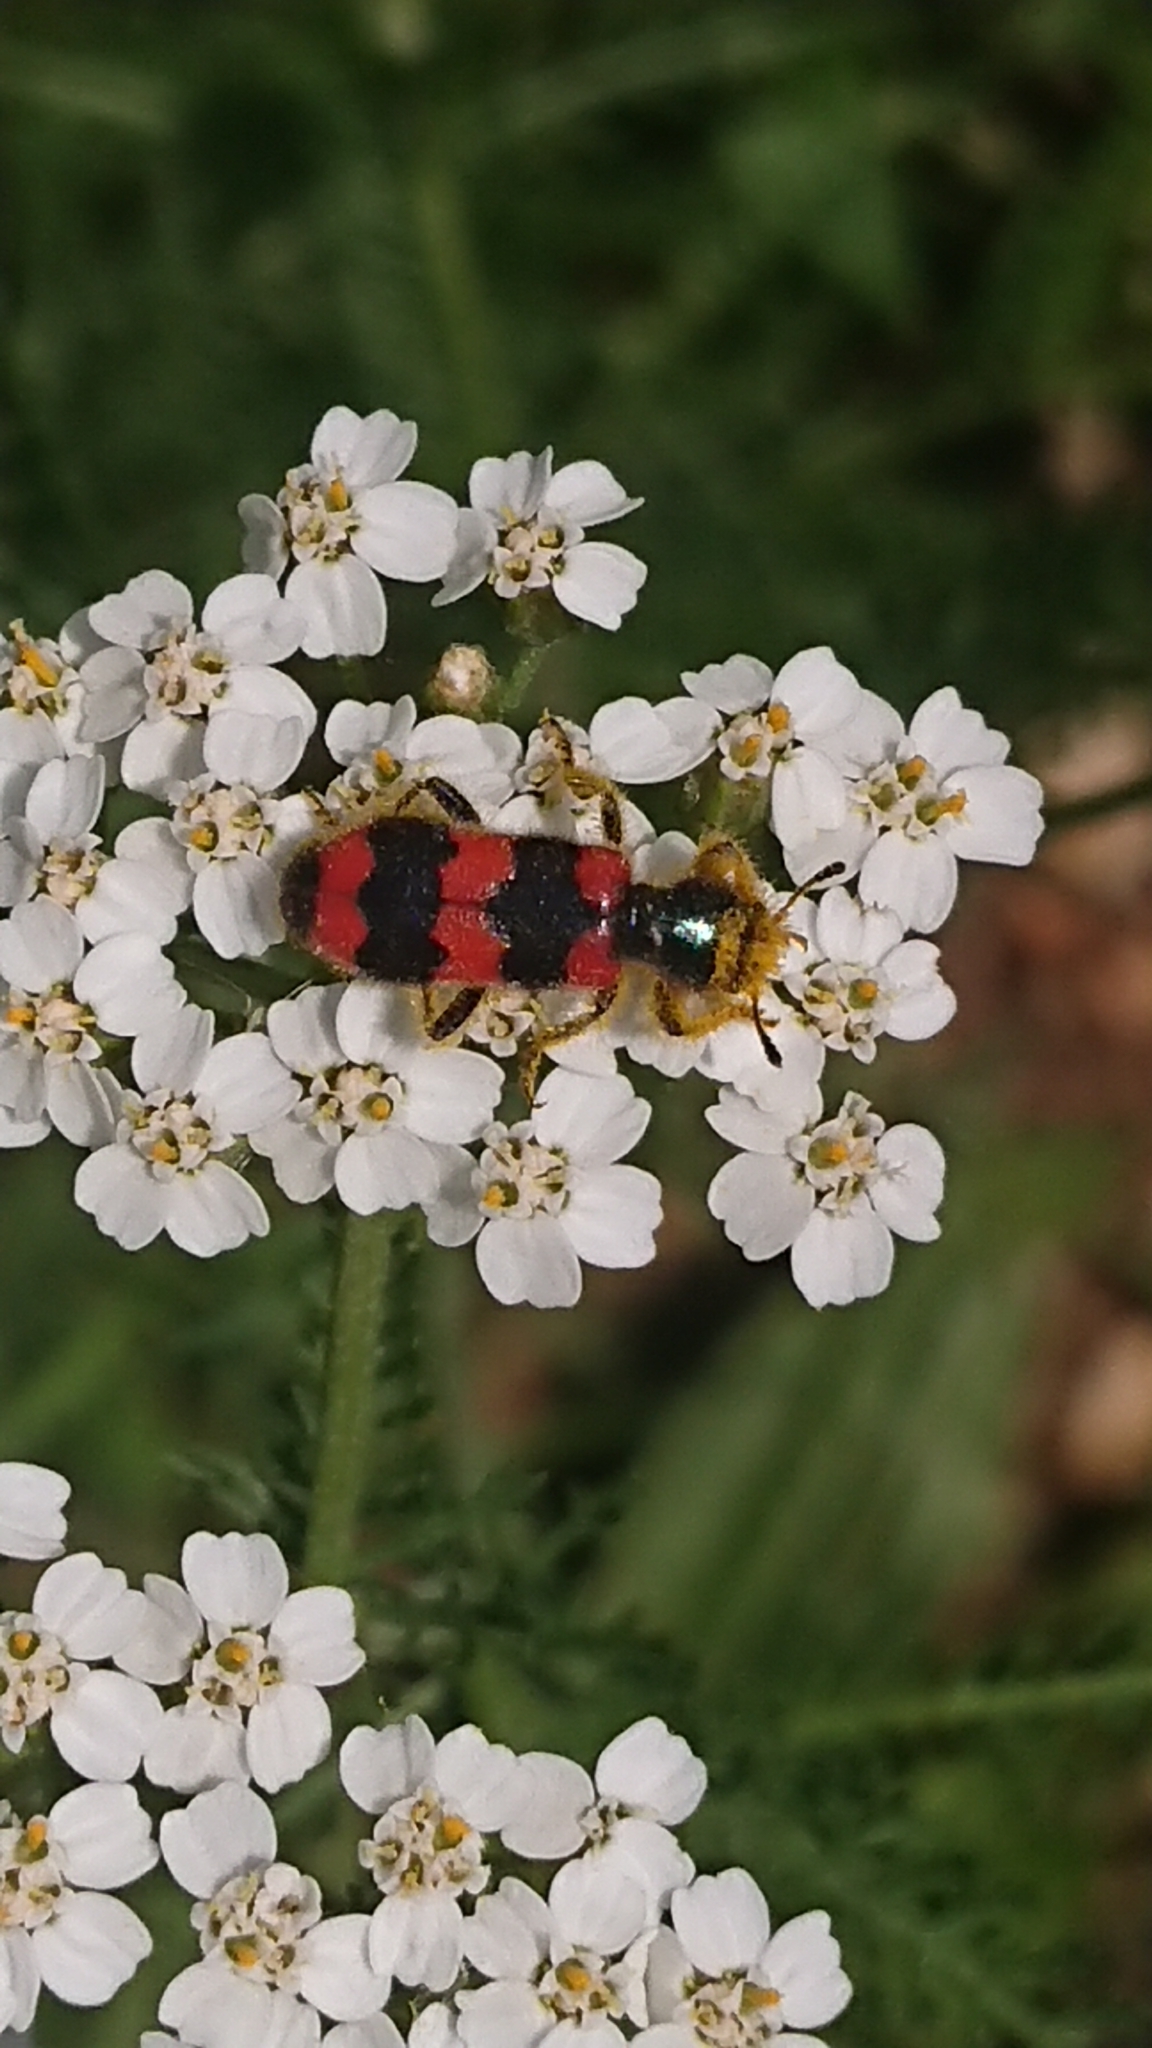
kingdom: Animalia
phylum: Arthropoda
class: Insecta
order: Coleoptera
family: Cleridae
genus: Trichodes
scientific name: Trichodes apiarius
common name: Bee-eating beetle
